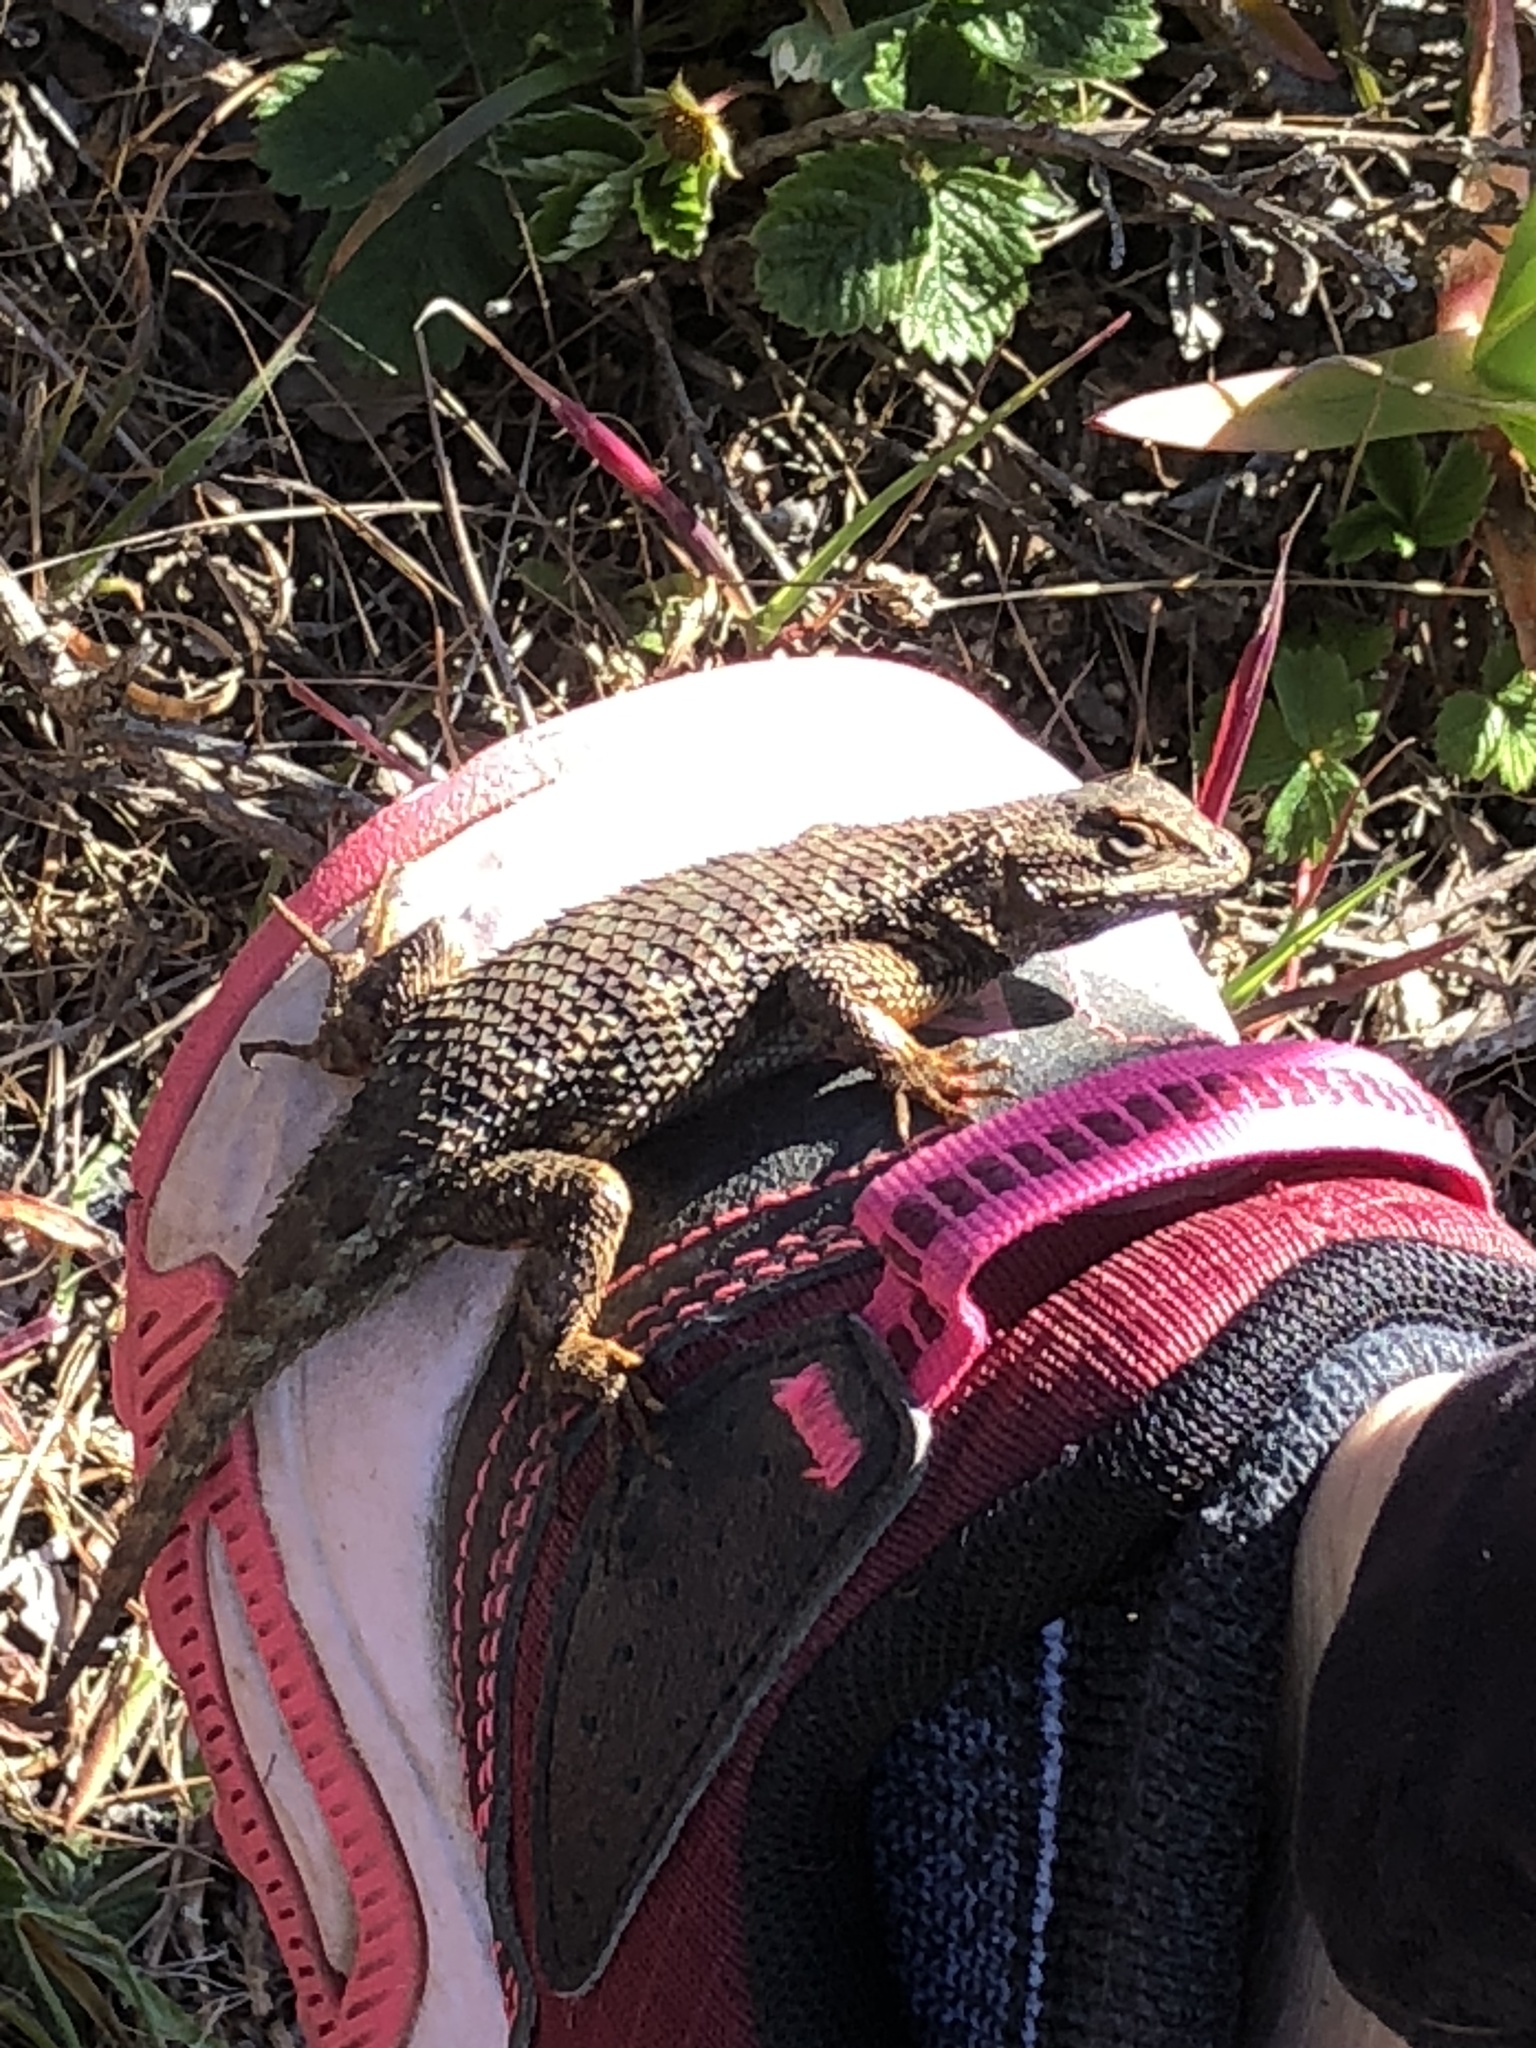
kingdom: Animalia
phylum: Chordata
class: Squamata
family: Phrynosomatidae
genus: Sceloporus
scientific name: Sceloporus occidentalis
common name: Western fence lizard
